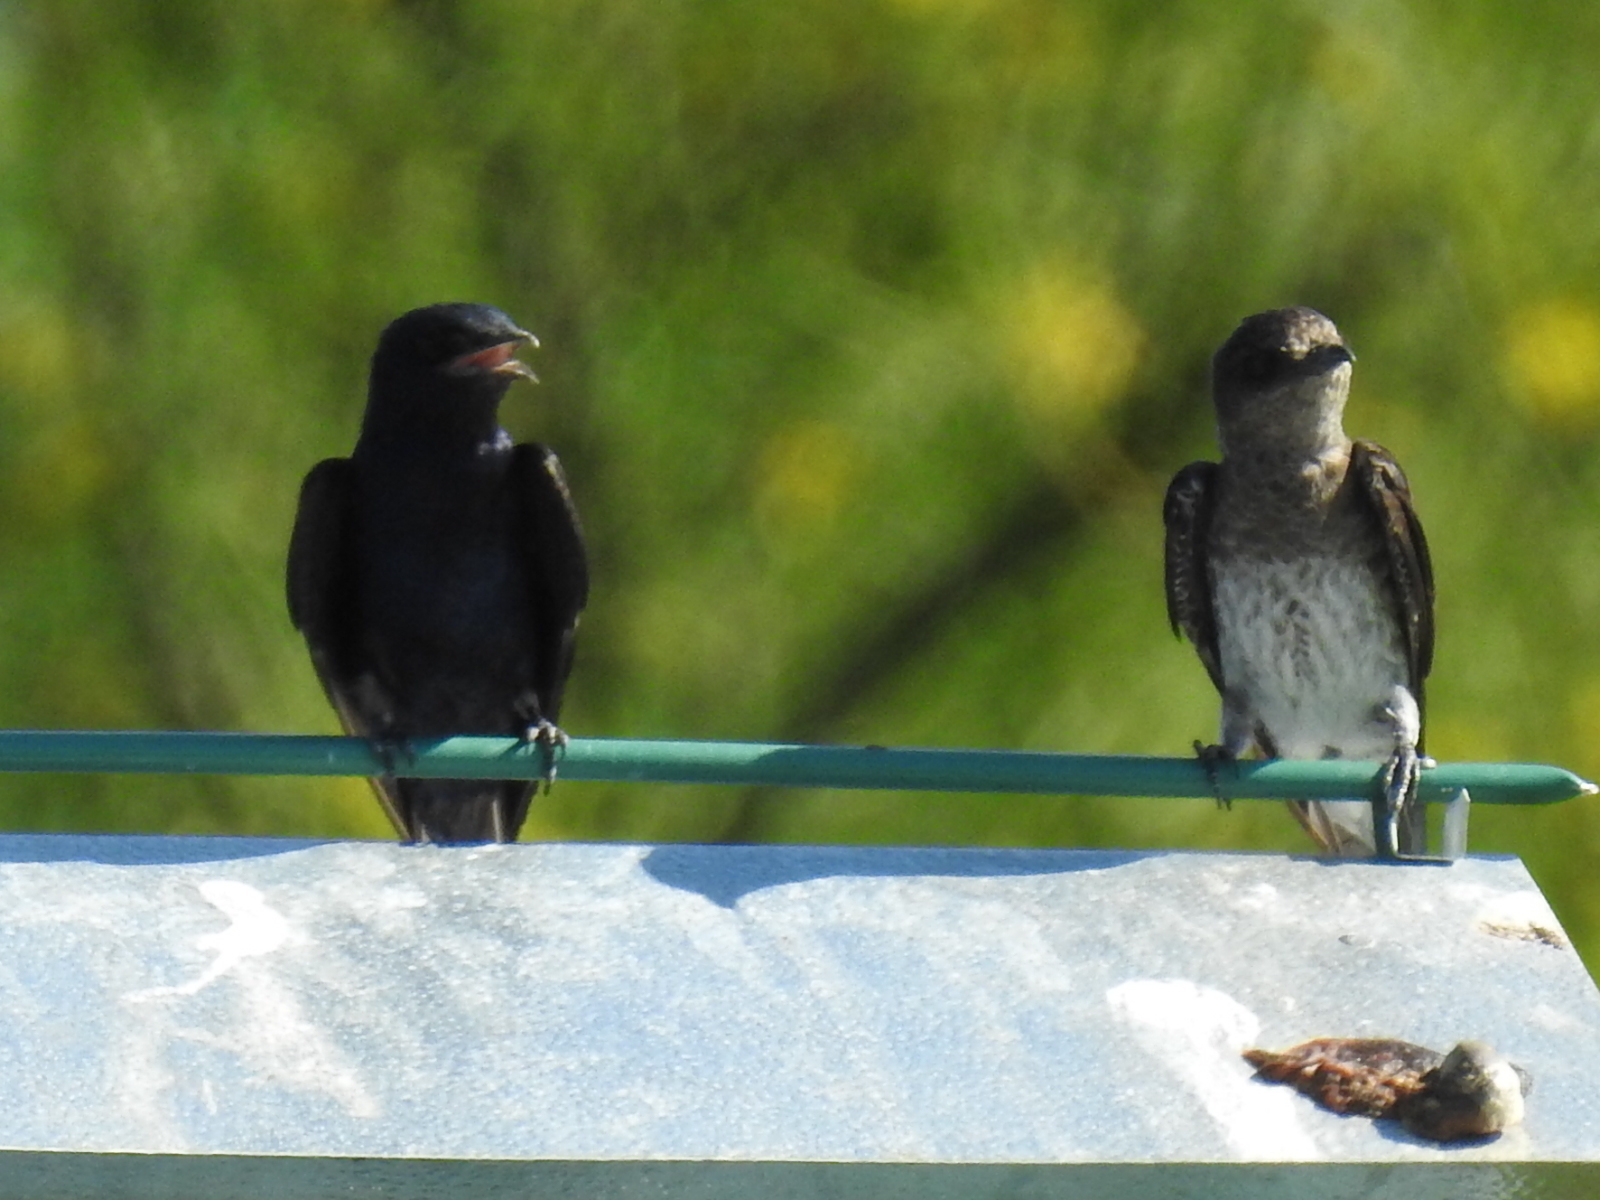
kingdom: Animalia
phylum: Chordata
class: Aves
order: Passeriformes
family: Hirundinidae
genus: Progne
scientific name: Progne subis
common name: Purple martin
